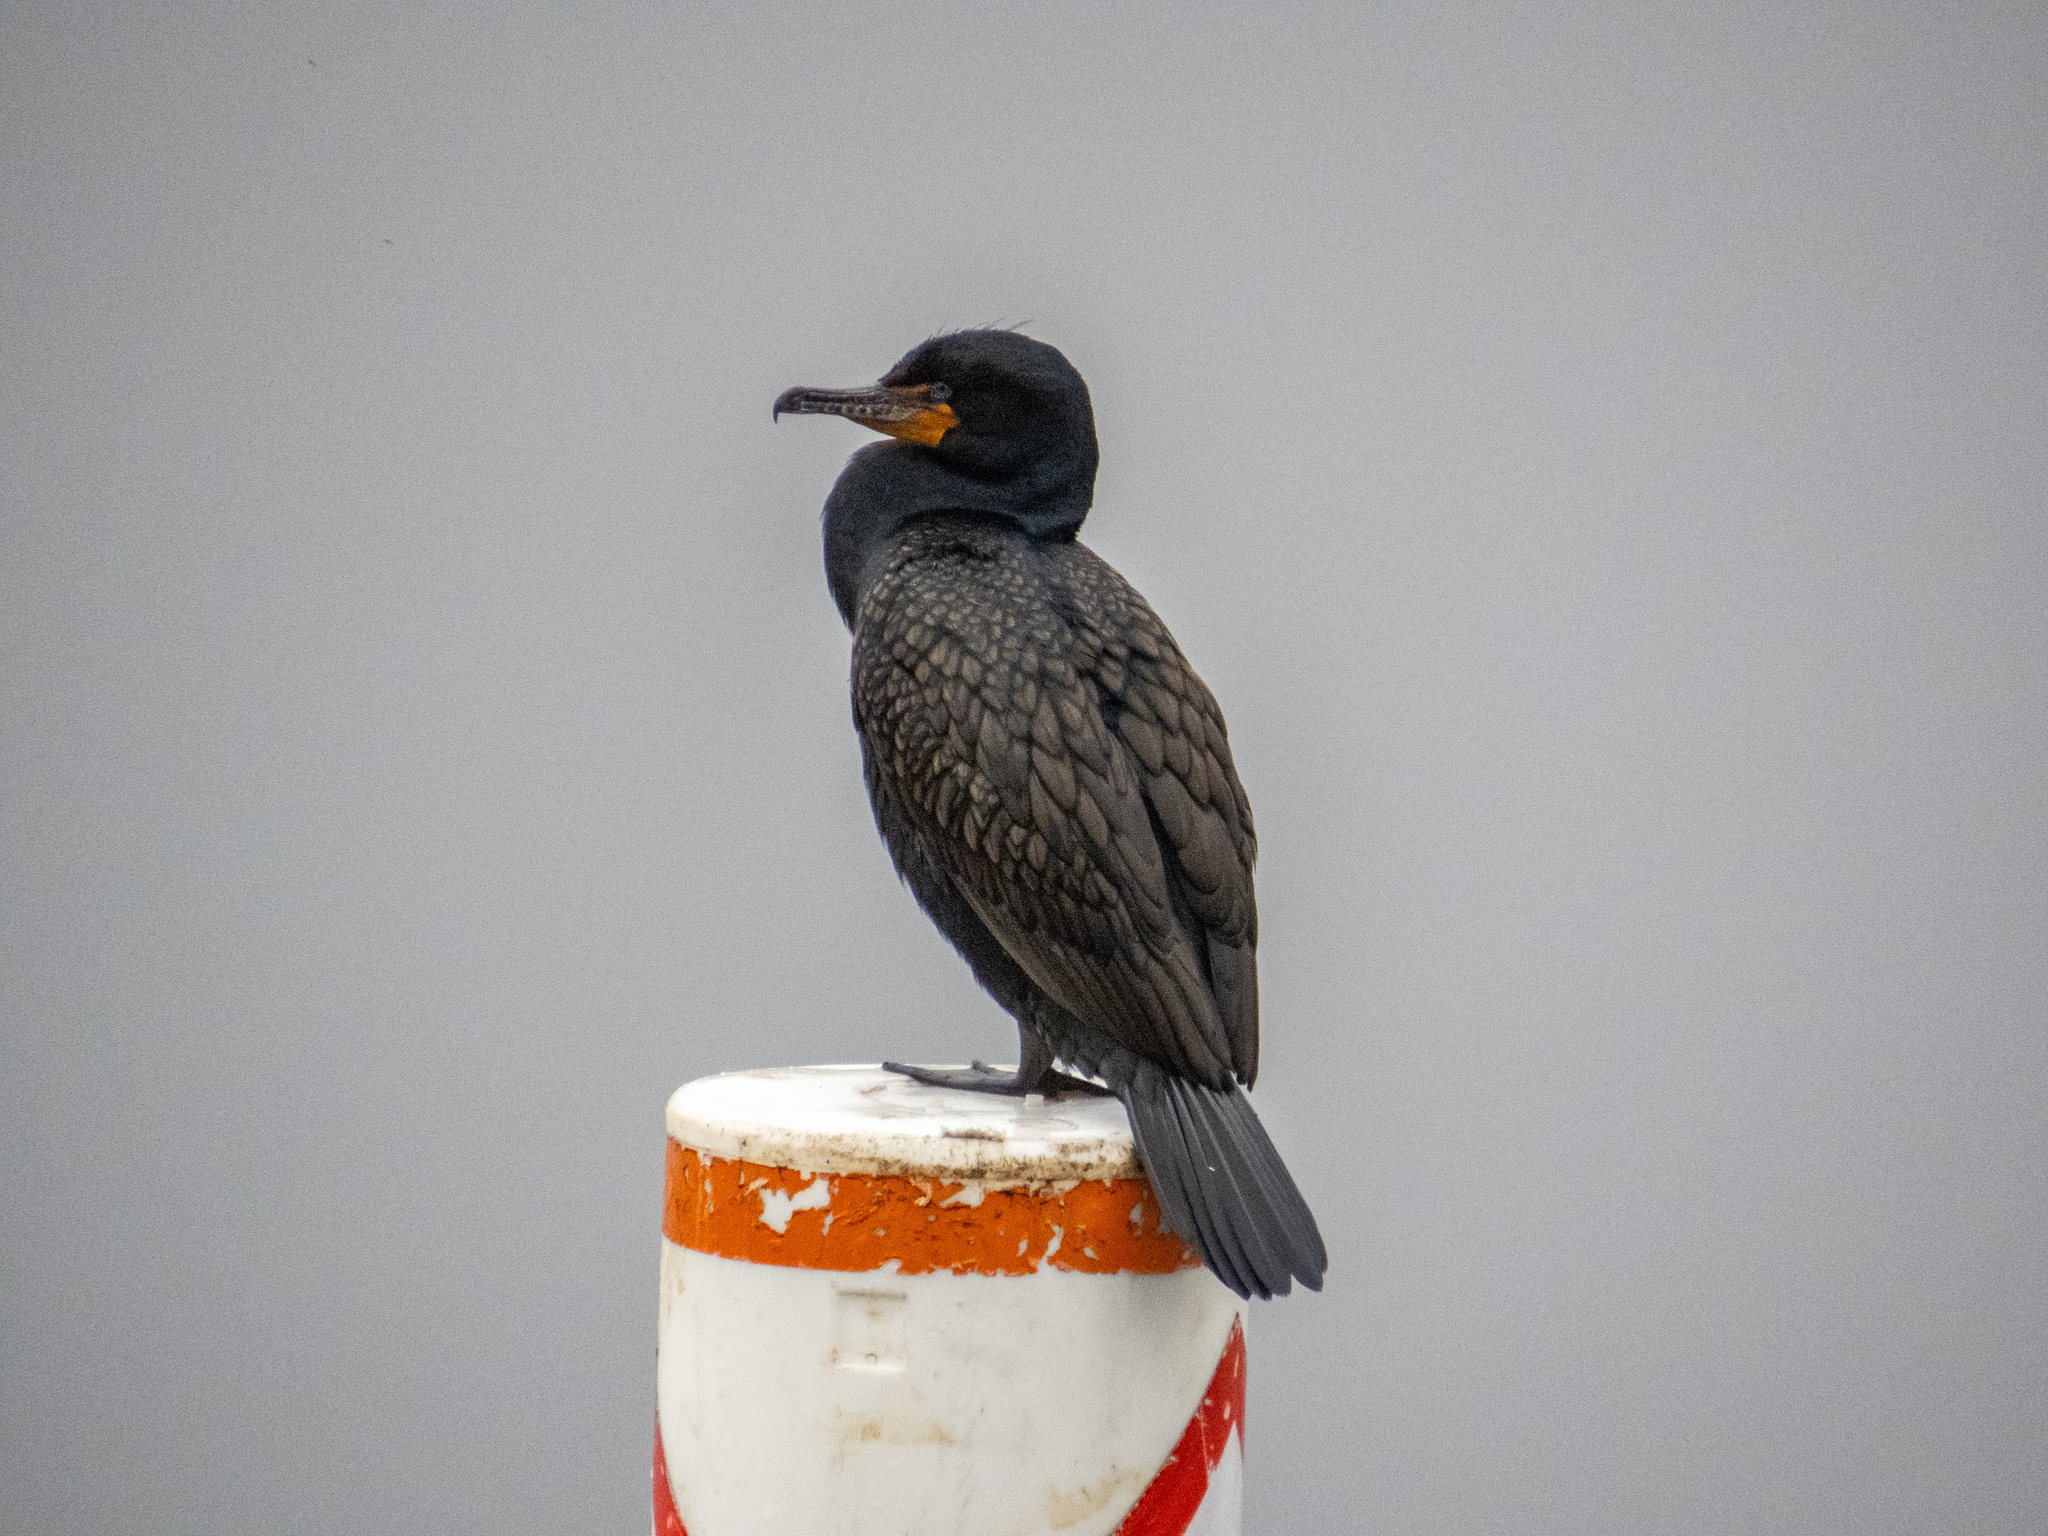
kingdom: Animalia
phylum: Chordata
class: Aves
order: Suliformes
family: Phalacrocoracidae
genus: Phalacrocorax
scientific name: Phalacrocorax auritus
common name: Double-crested cormorant
